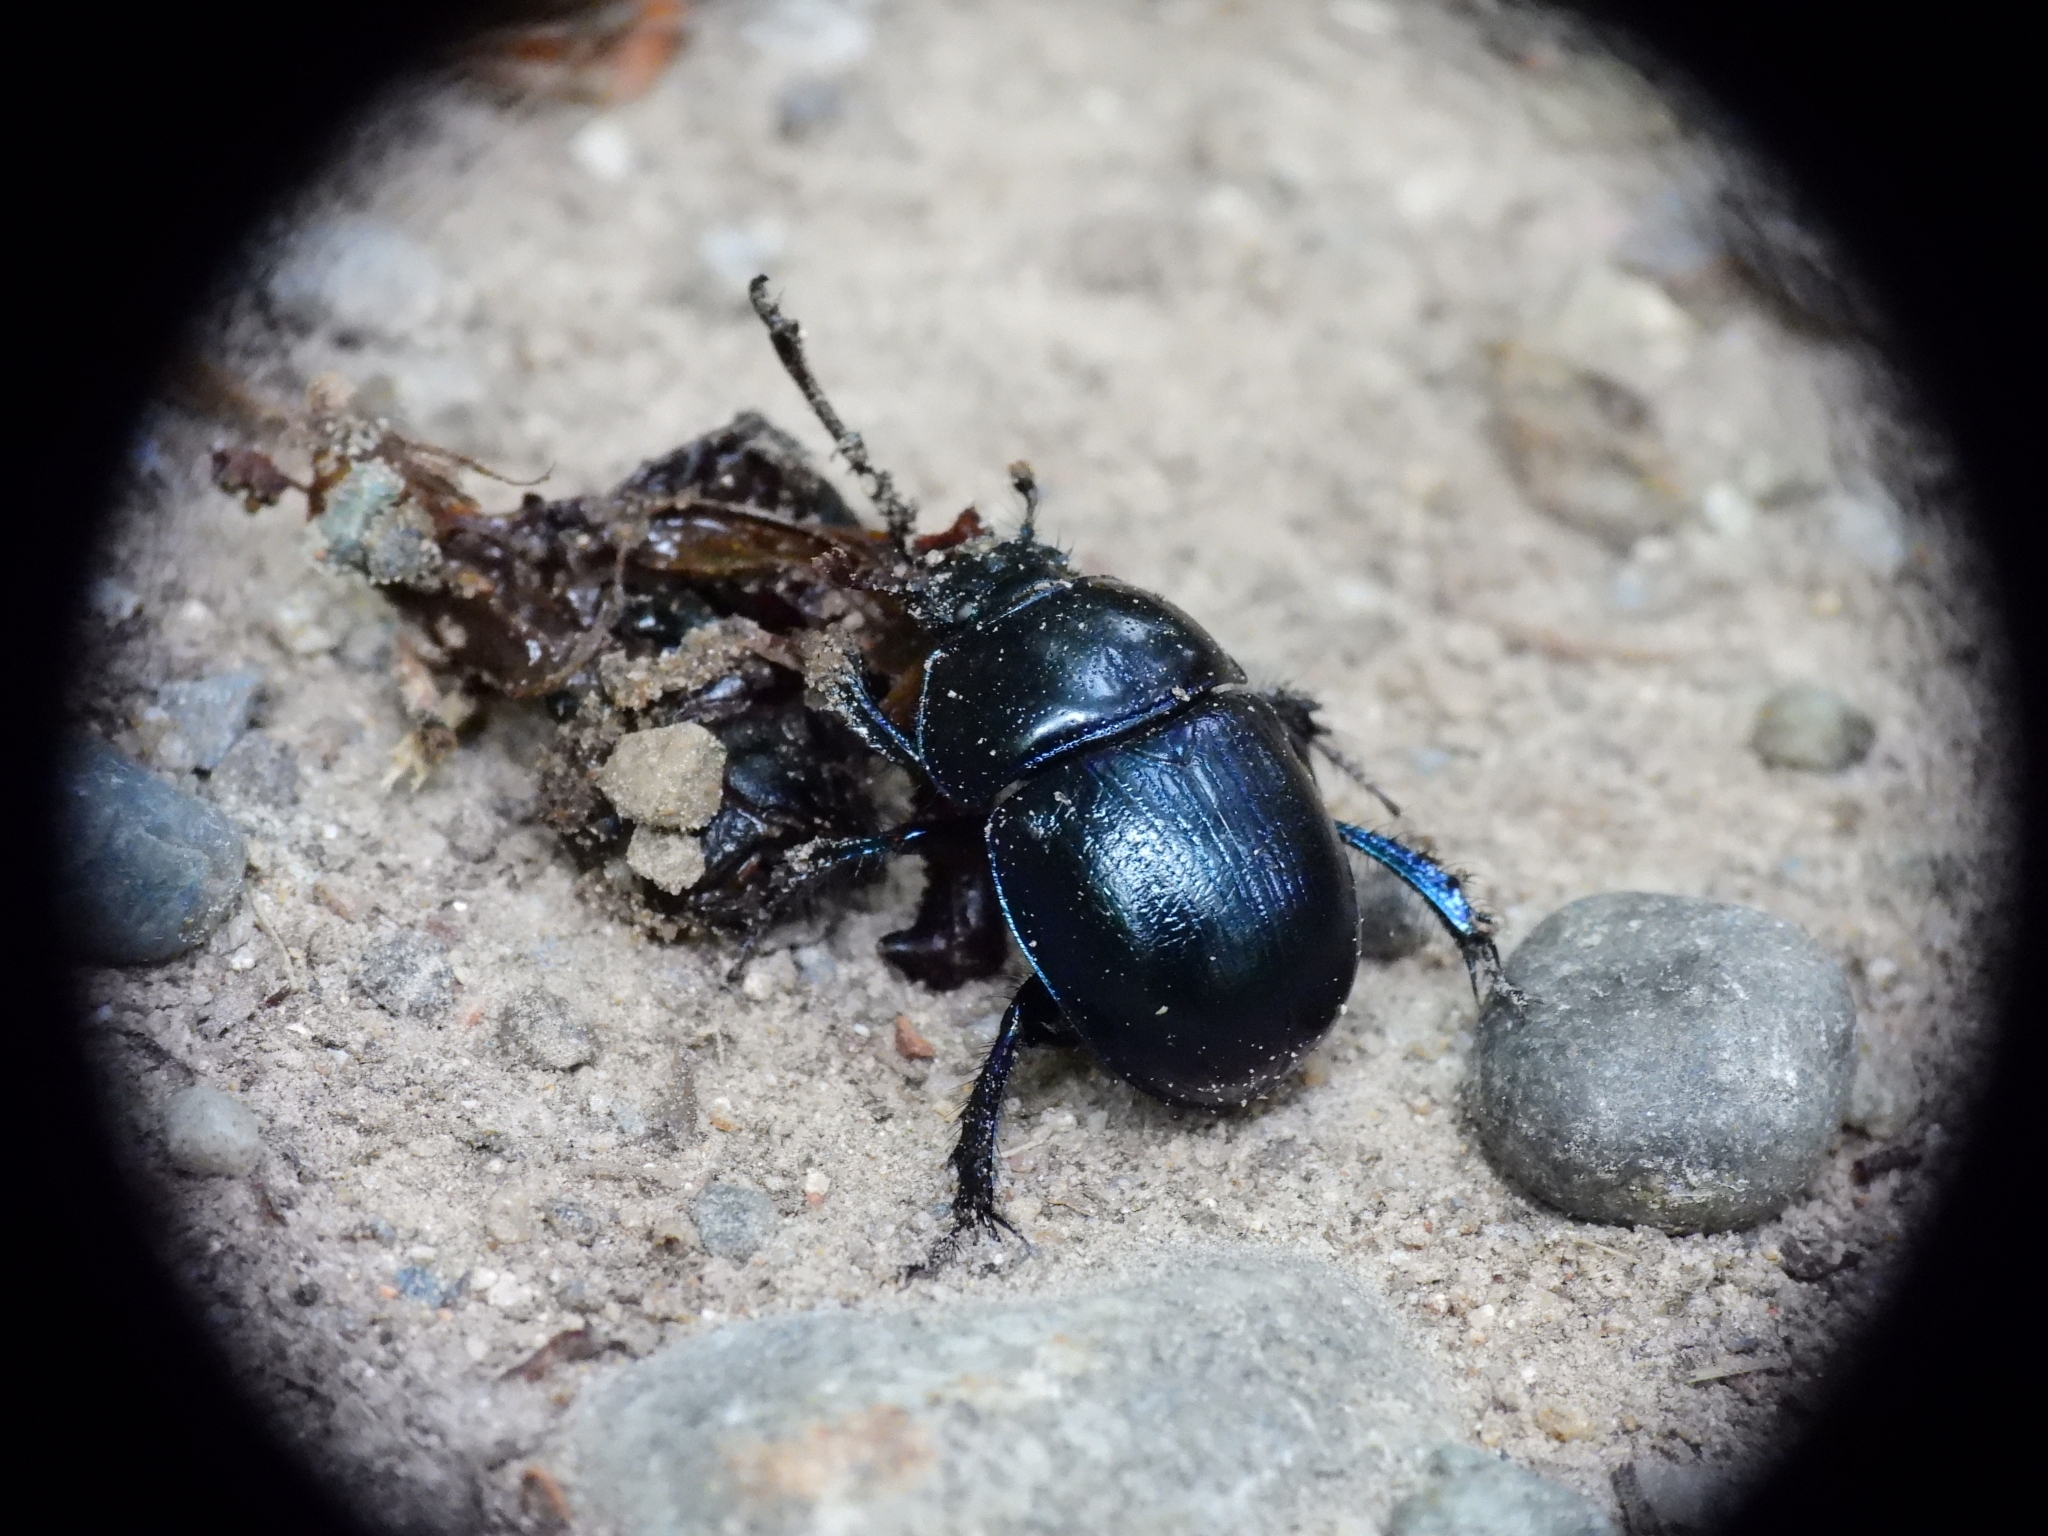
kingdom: Animalia
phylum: Arthropoda
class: Insecta
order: Coleoptera
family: Geotrupidae
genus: Anoplotrupes
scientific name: Anoplotrupes stercorosus
